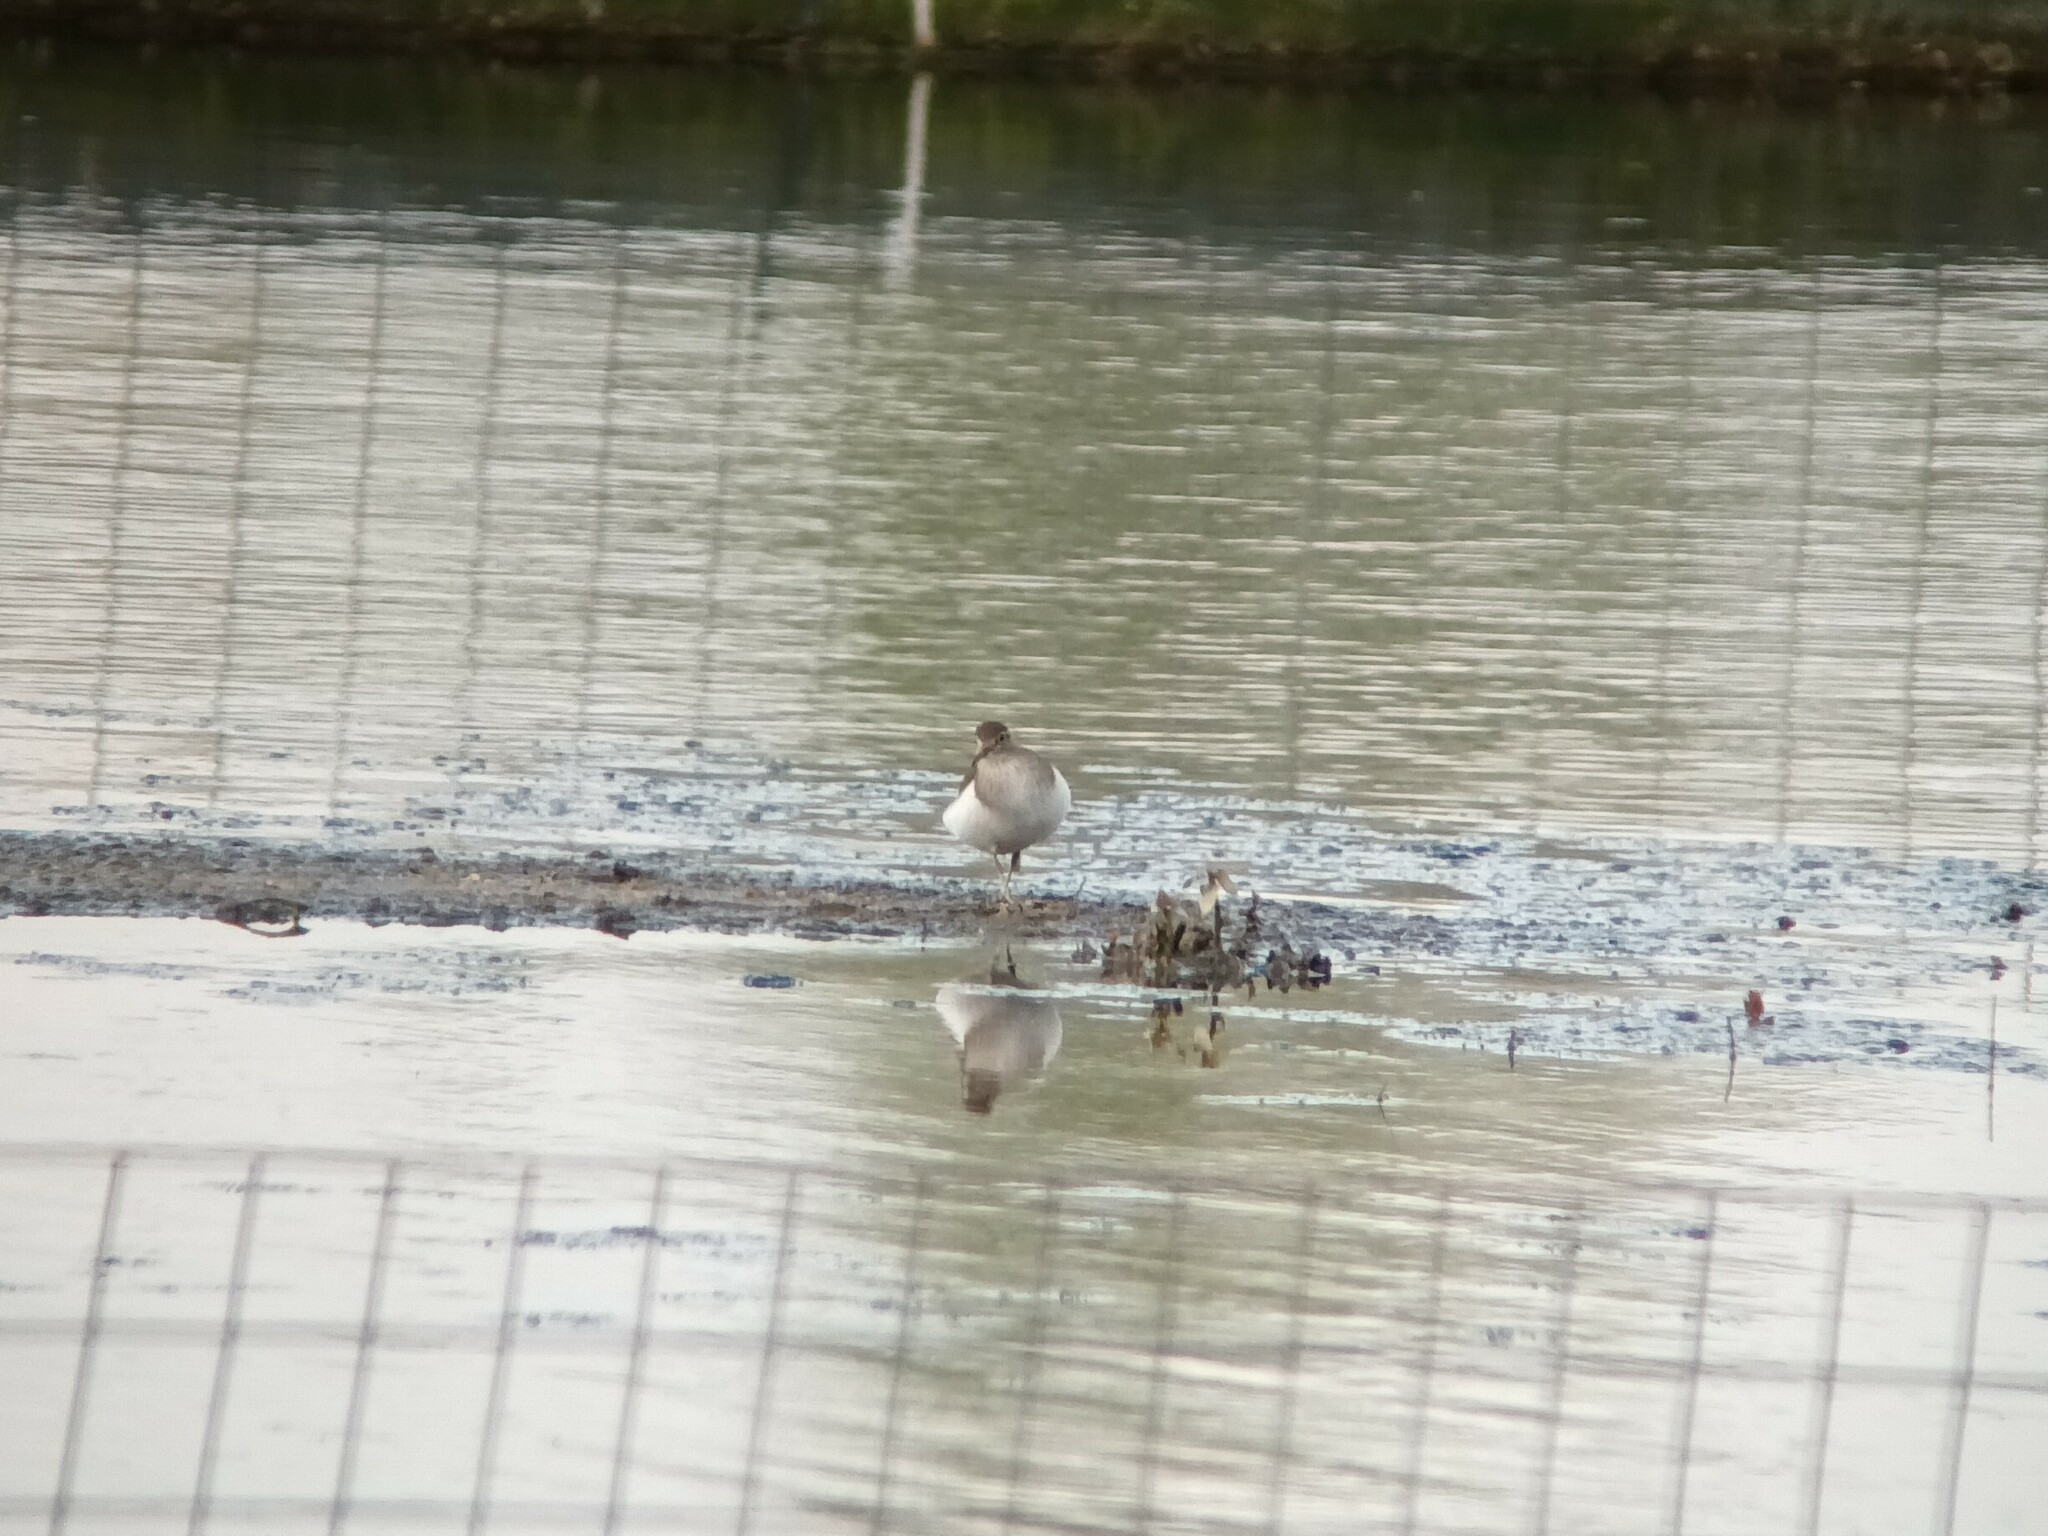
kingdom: Animalia
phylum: Chordata
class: Aves
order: Charadriiformes
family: Scolopacidae
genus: Actitis
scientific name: Actitis hypoleucos
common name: Common sandpiper
